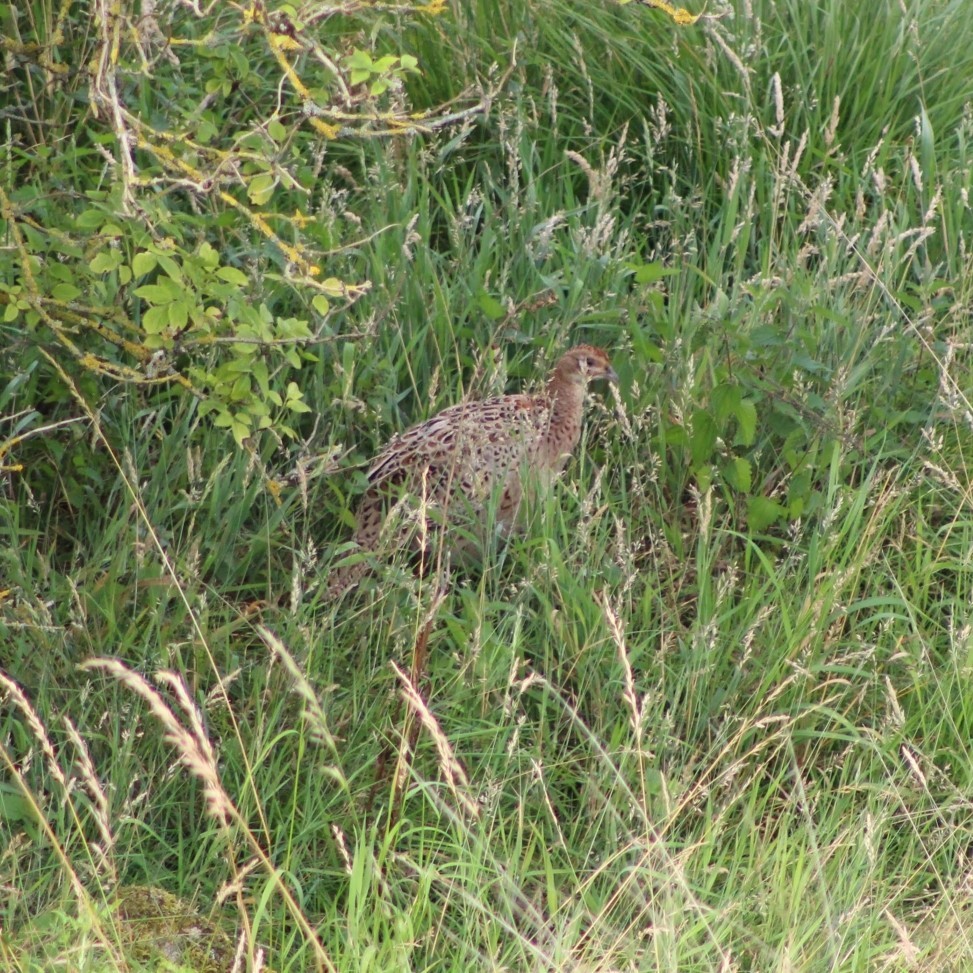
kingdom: Animalia
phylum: Chordata
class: Aves
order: Galliformes
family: Phasianidae
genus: Phasianus
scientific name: Phasianus colchicus
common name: Common pheasant
